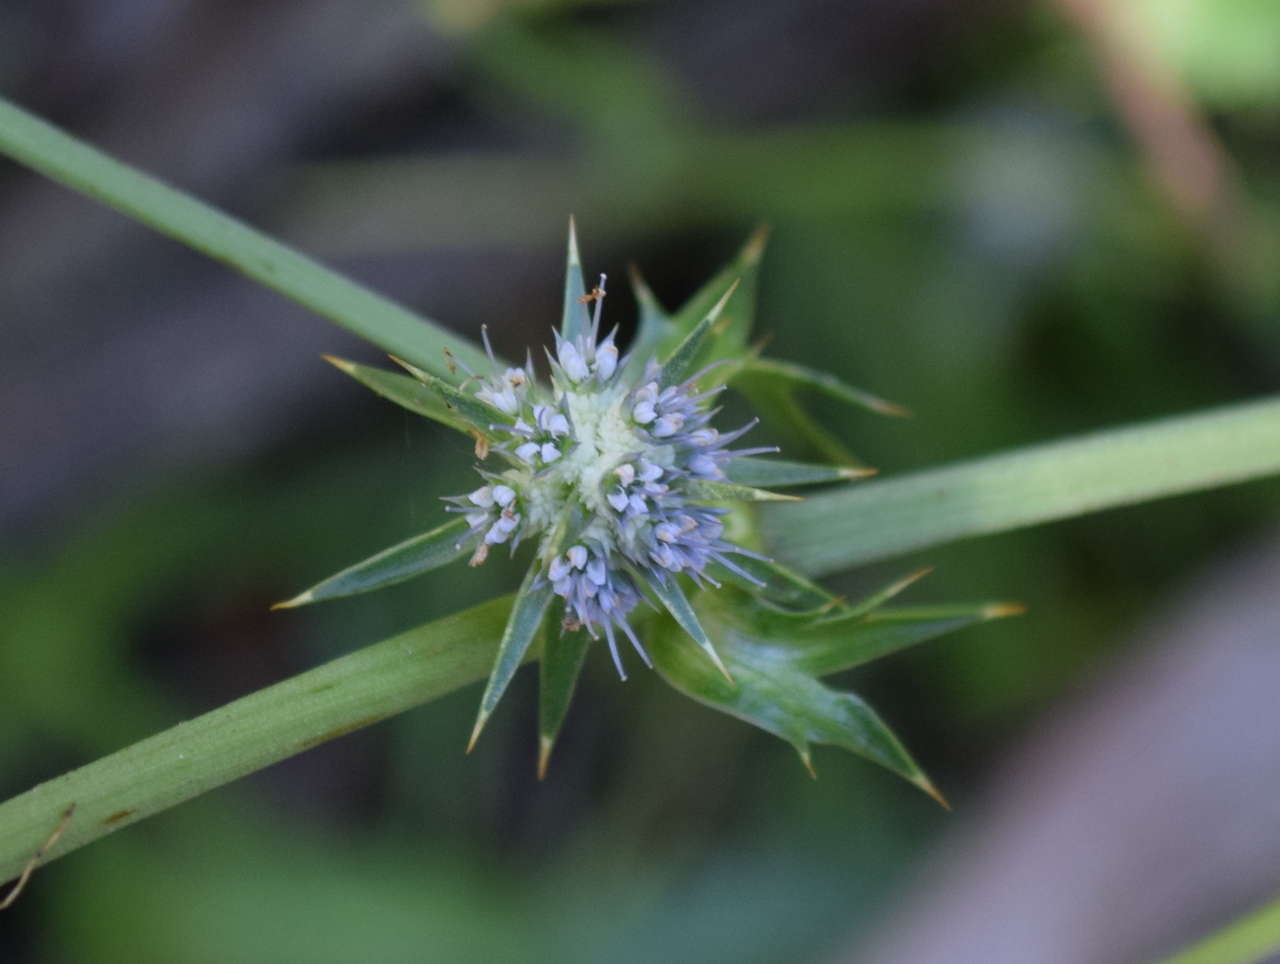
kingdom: Plantae
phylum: Tracheophyta
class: Magnoliopsida
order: Apiales
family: Apiaceae
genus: Eryngium
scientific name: Eryngium vesiculosum
